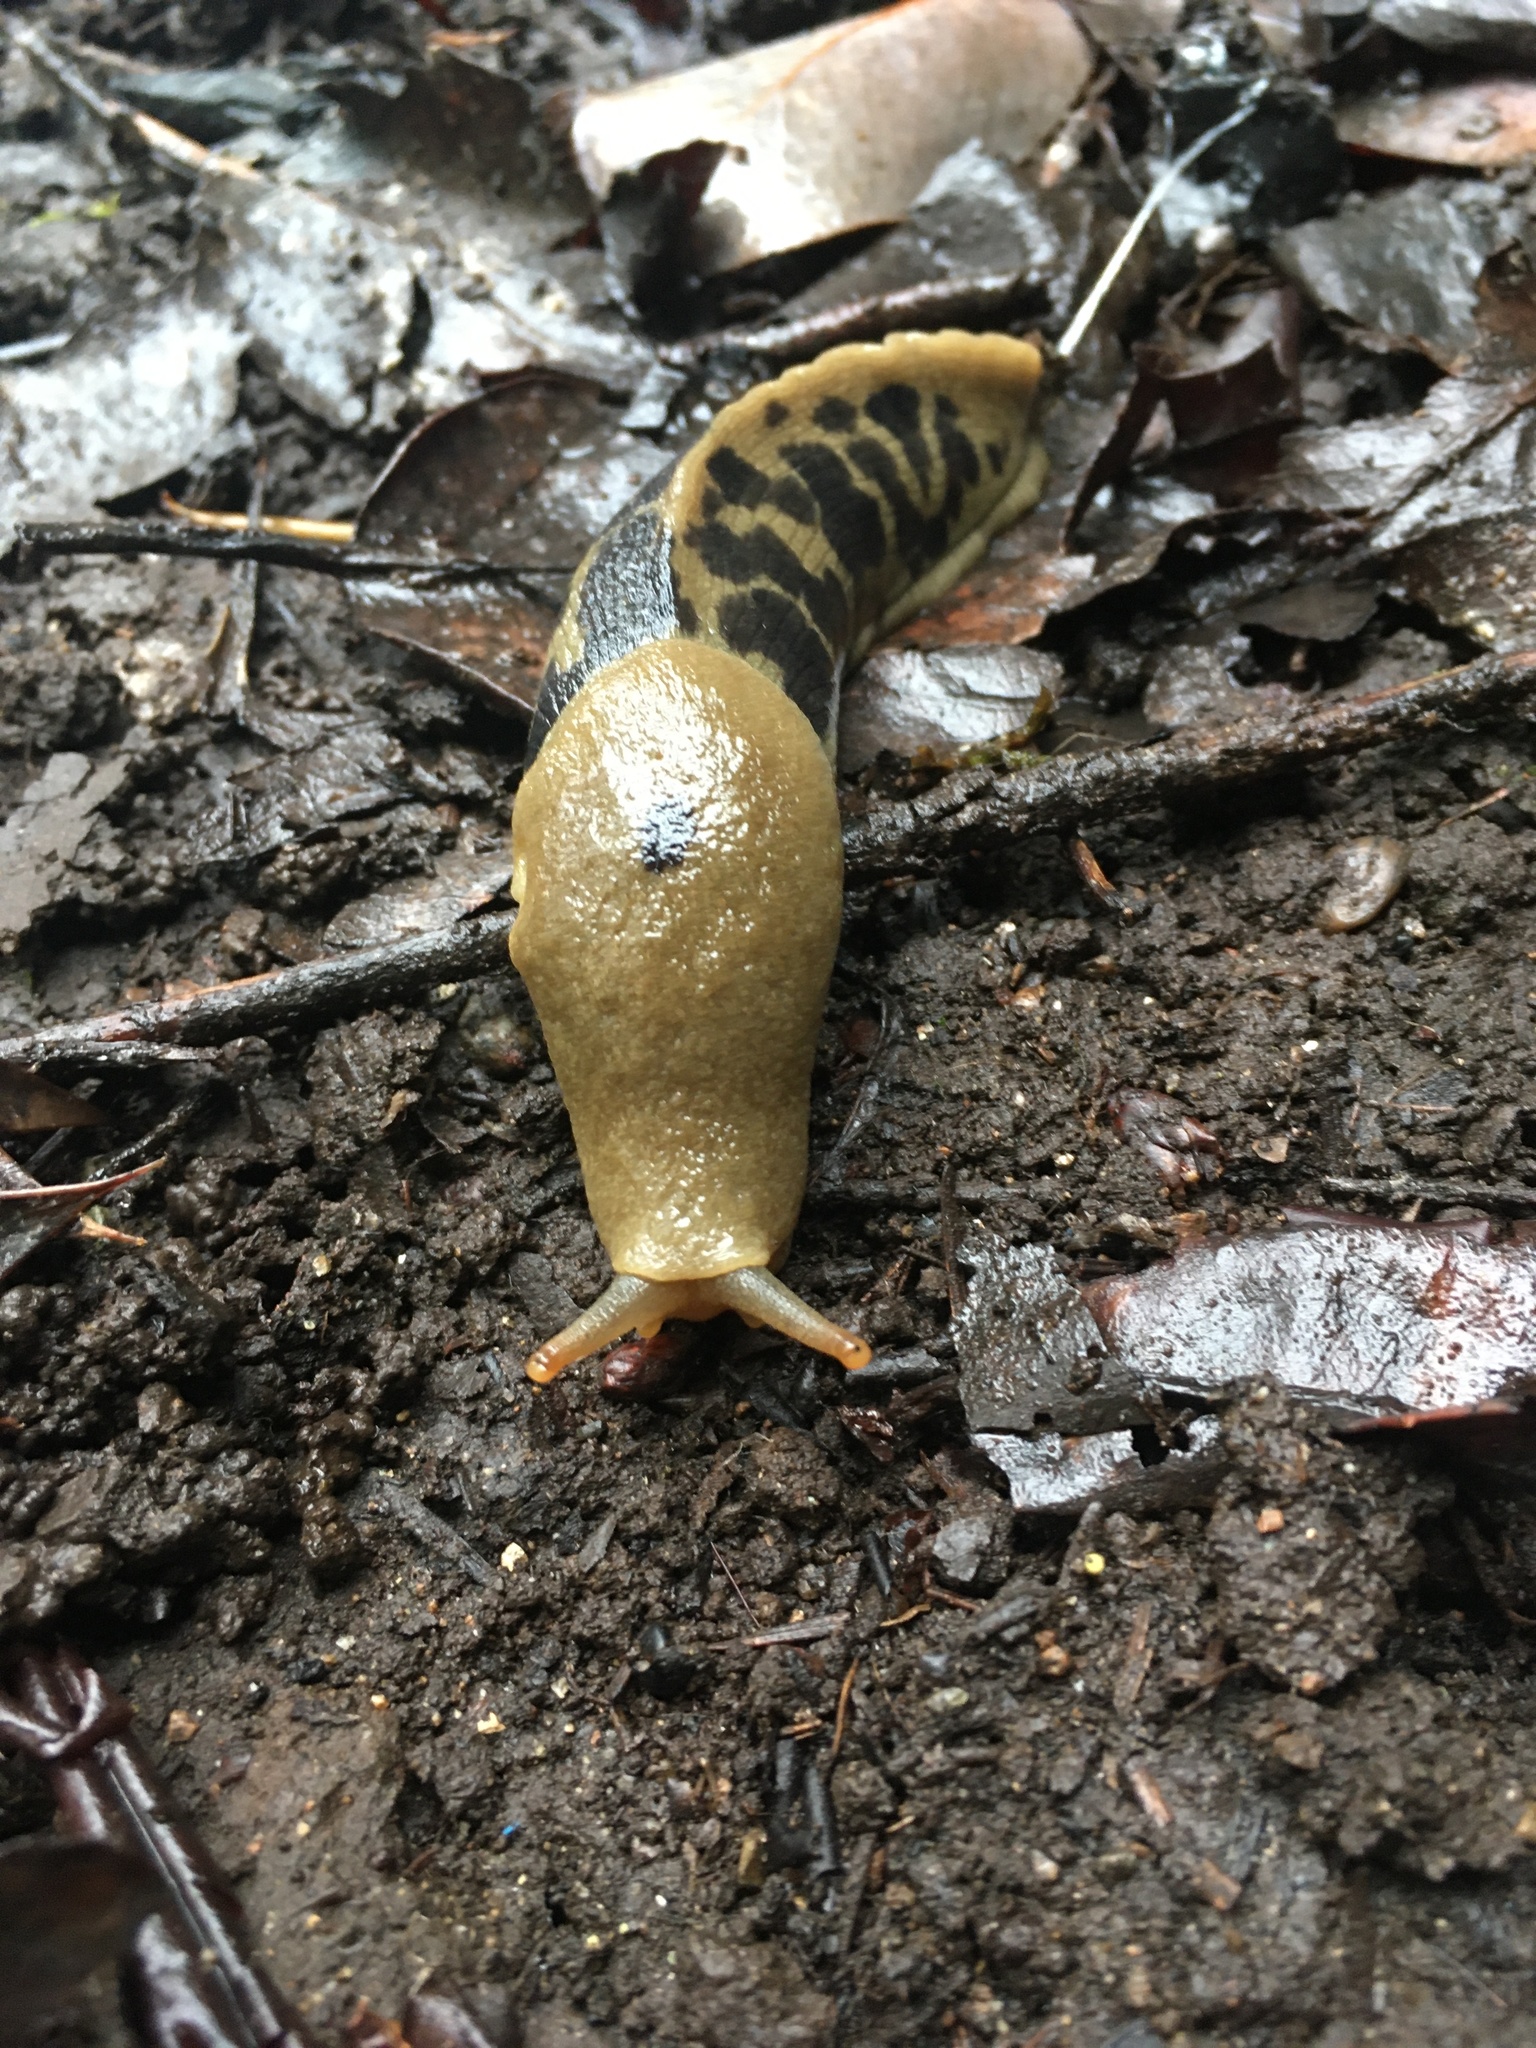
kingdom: Animalia
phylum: Mollusca
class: Gastropoda
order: Stylommatophora
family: Ariolimacidae
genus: Ariolimax
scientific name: Ariolimax columbianus
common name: Pacific banana slug
